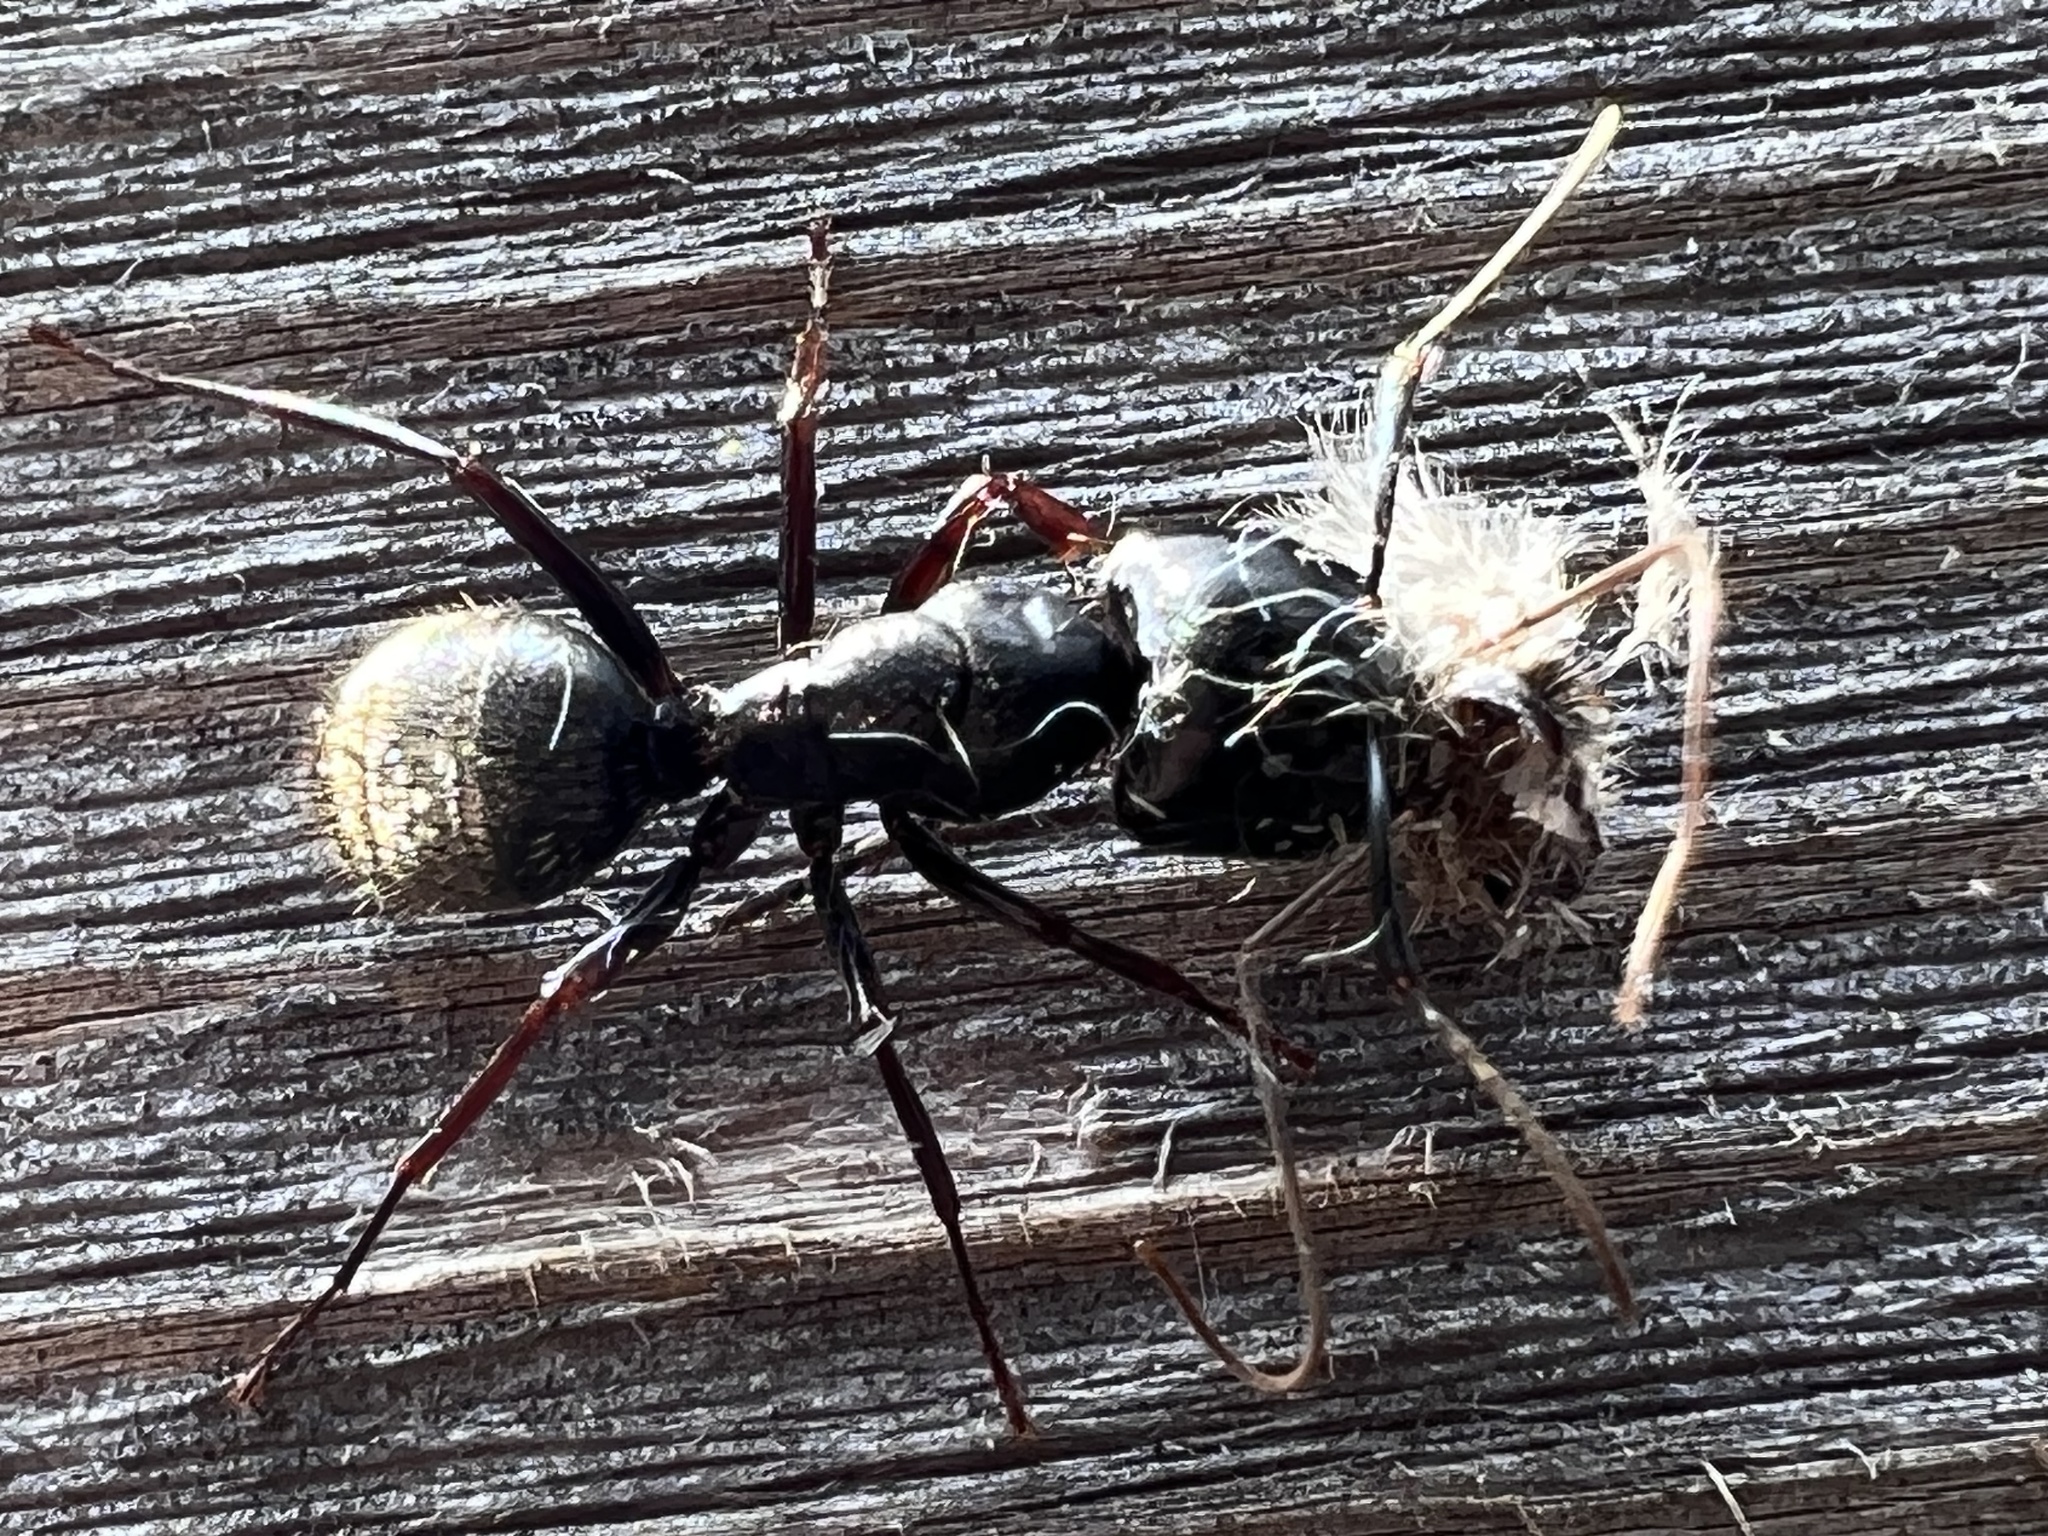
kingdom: Animalia
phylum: Arthropoda
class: Insecta
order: Hymenoptera
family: Formicidae
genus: Camponotus
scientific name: Camponotus modoc
